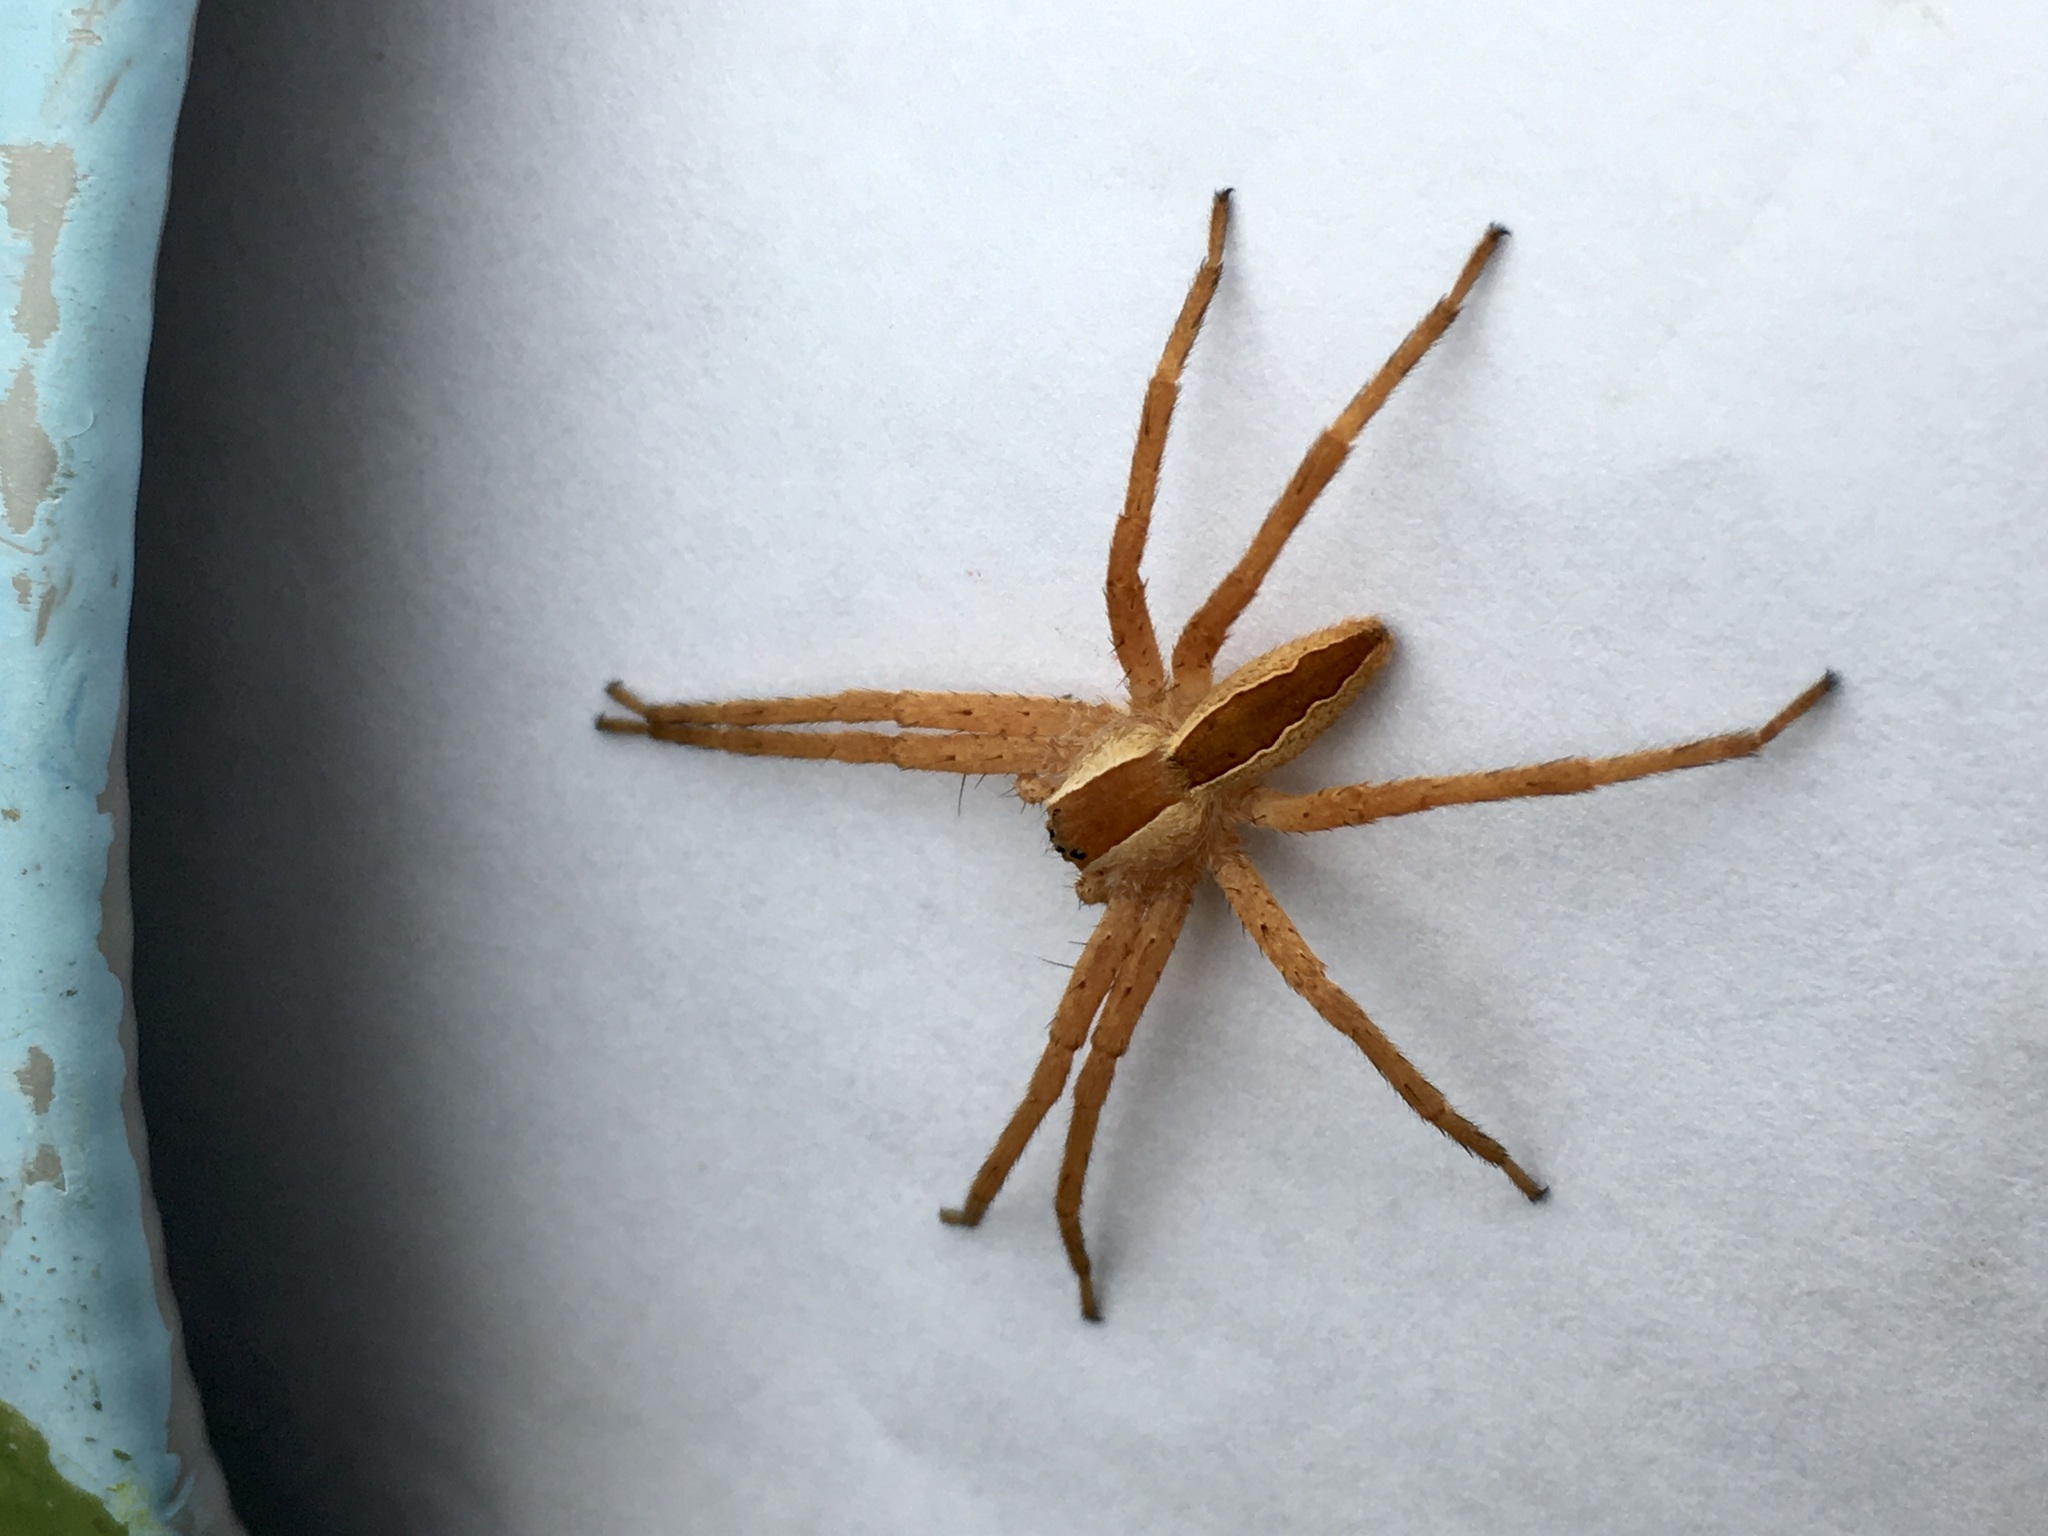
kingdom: Animalia
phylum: Arthropoda
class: Arachnida
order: Araneae
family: Pisauridae
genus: Pisaurina
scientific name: Pisaurina mira
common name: American nursery web spider
